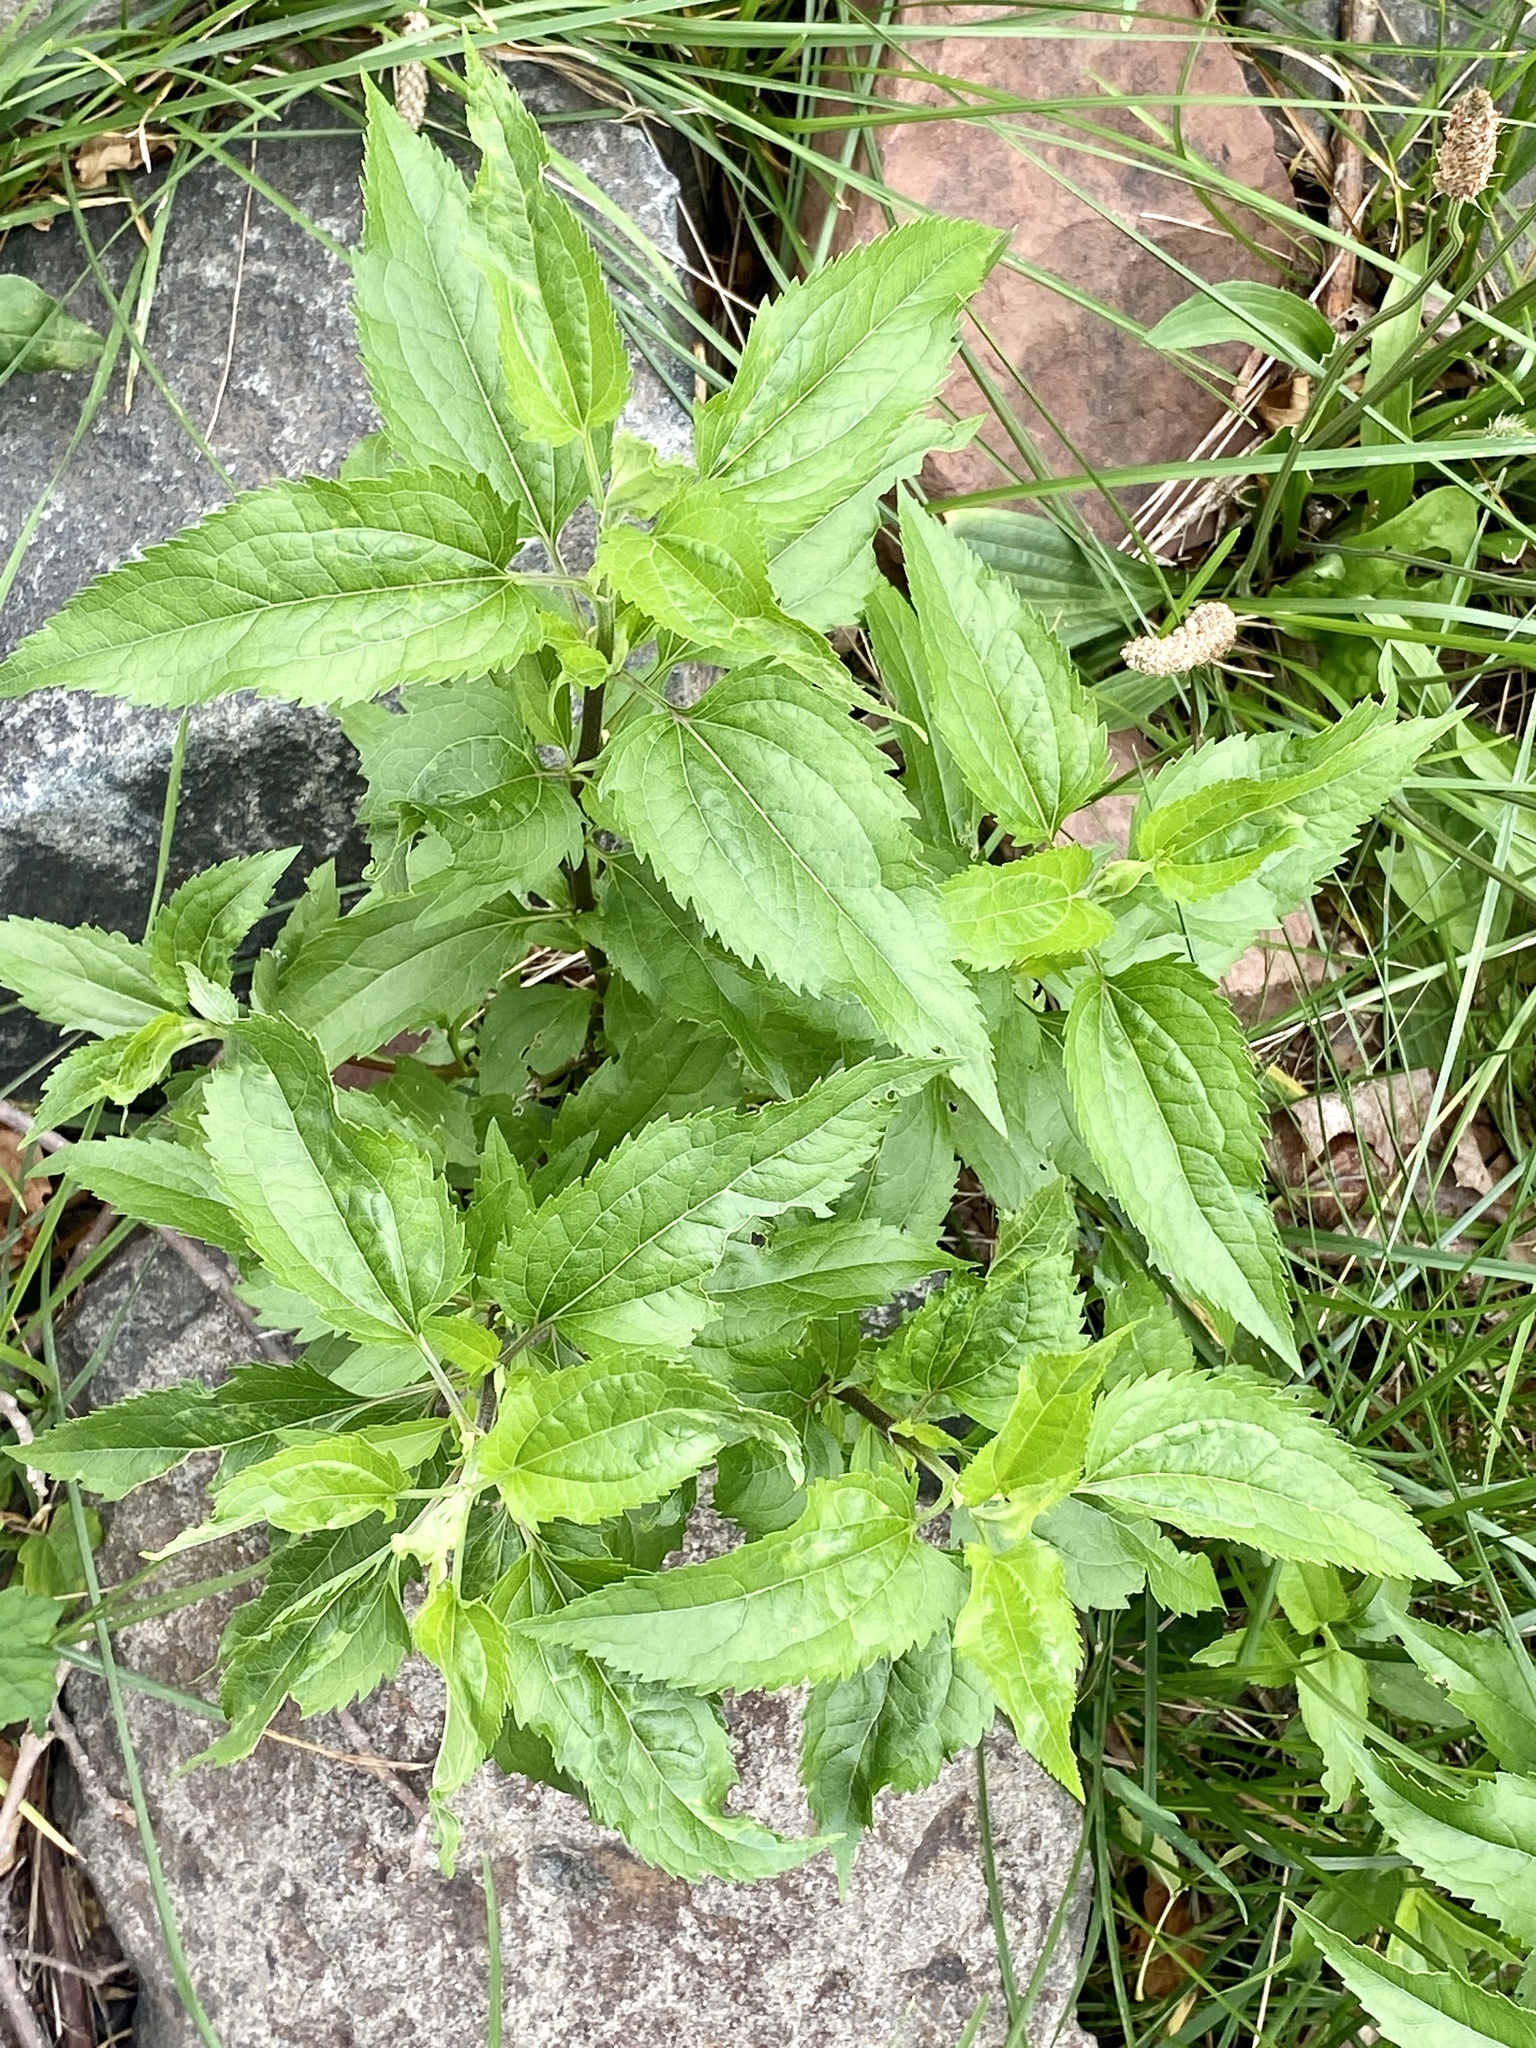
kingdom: Plantae
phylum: Tracheophyta
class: Magnoliopsida
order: Asterales
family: Asteraceae
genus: Eupatorium
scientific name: Eupatorium serotinum
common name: Late boneset
